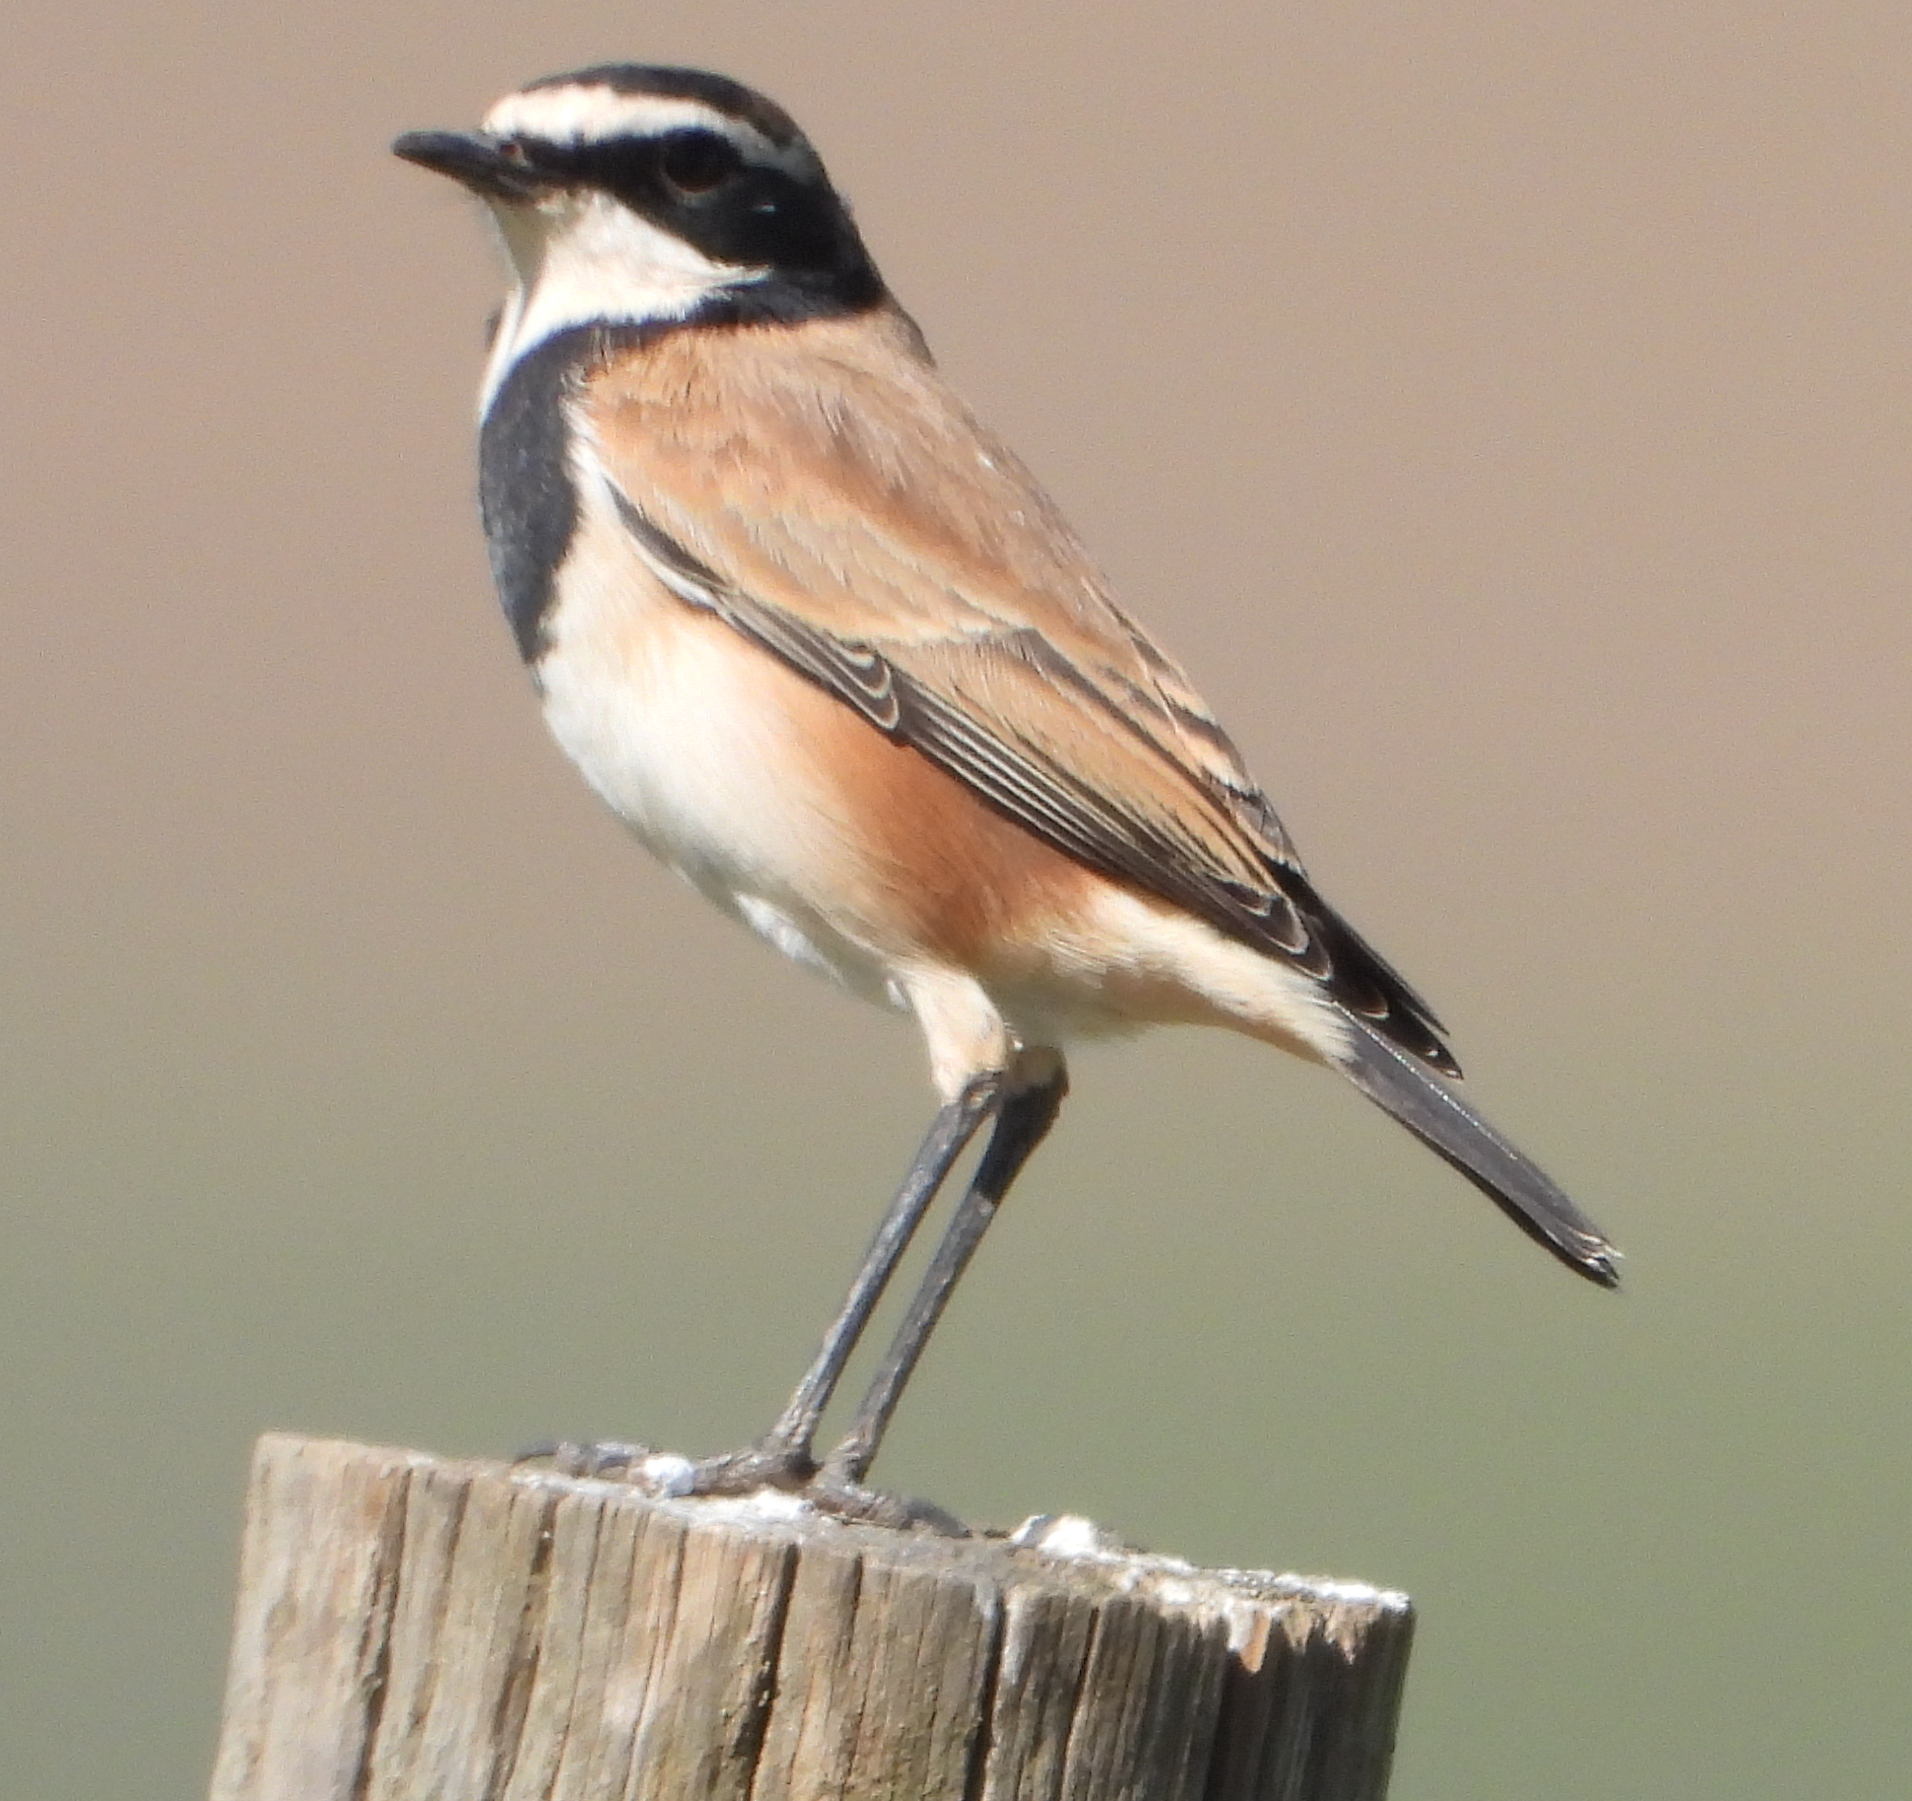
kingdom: Animalia
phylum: Chordata
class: Aves
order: Passeriformes
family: Muscicapidae
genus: Oenanthe
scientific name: Oenanthe pileata
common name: Capped wheatear
